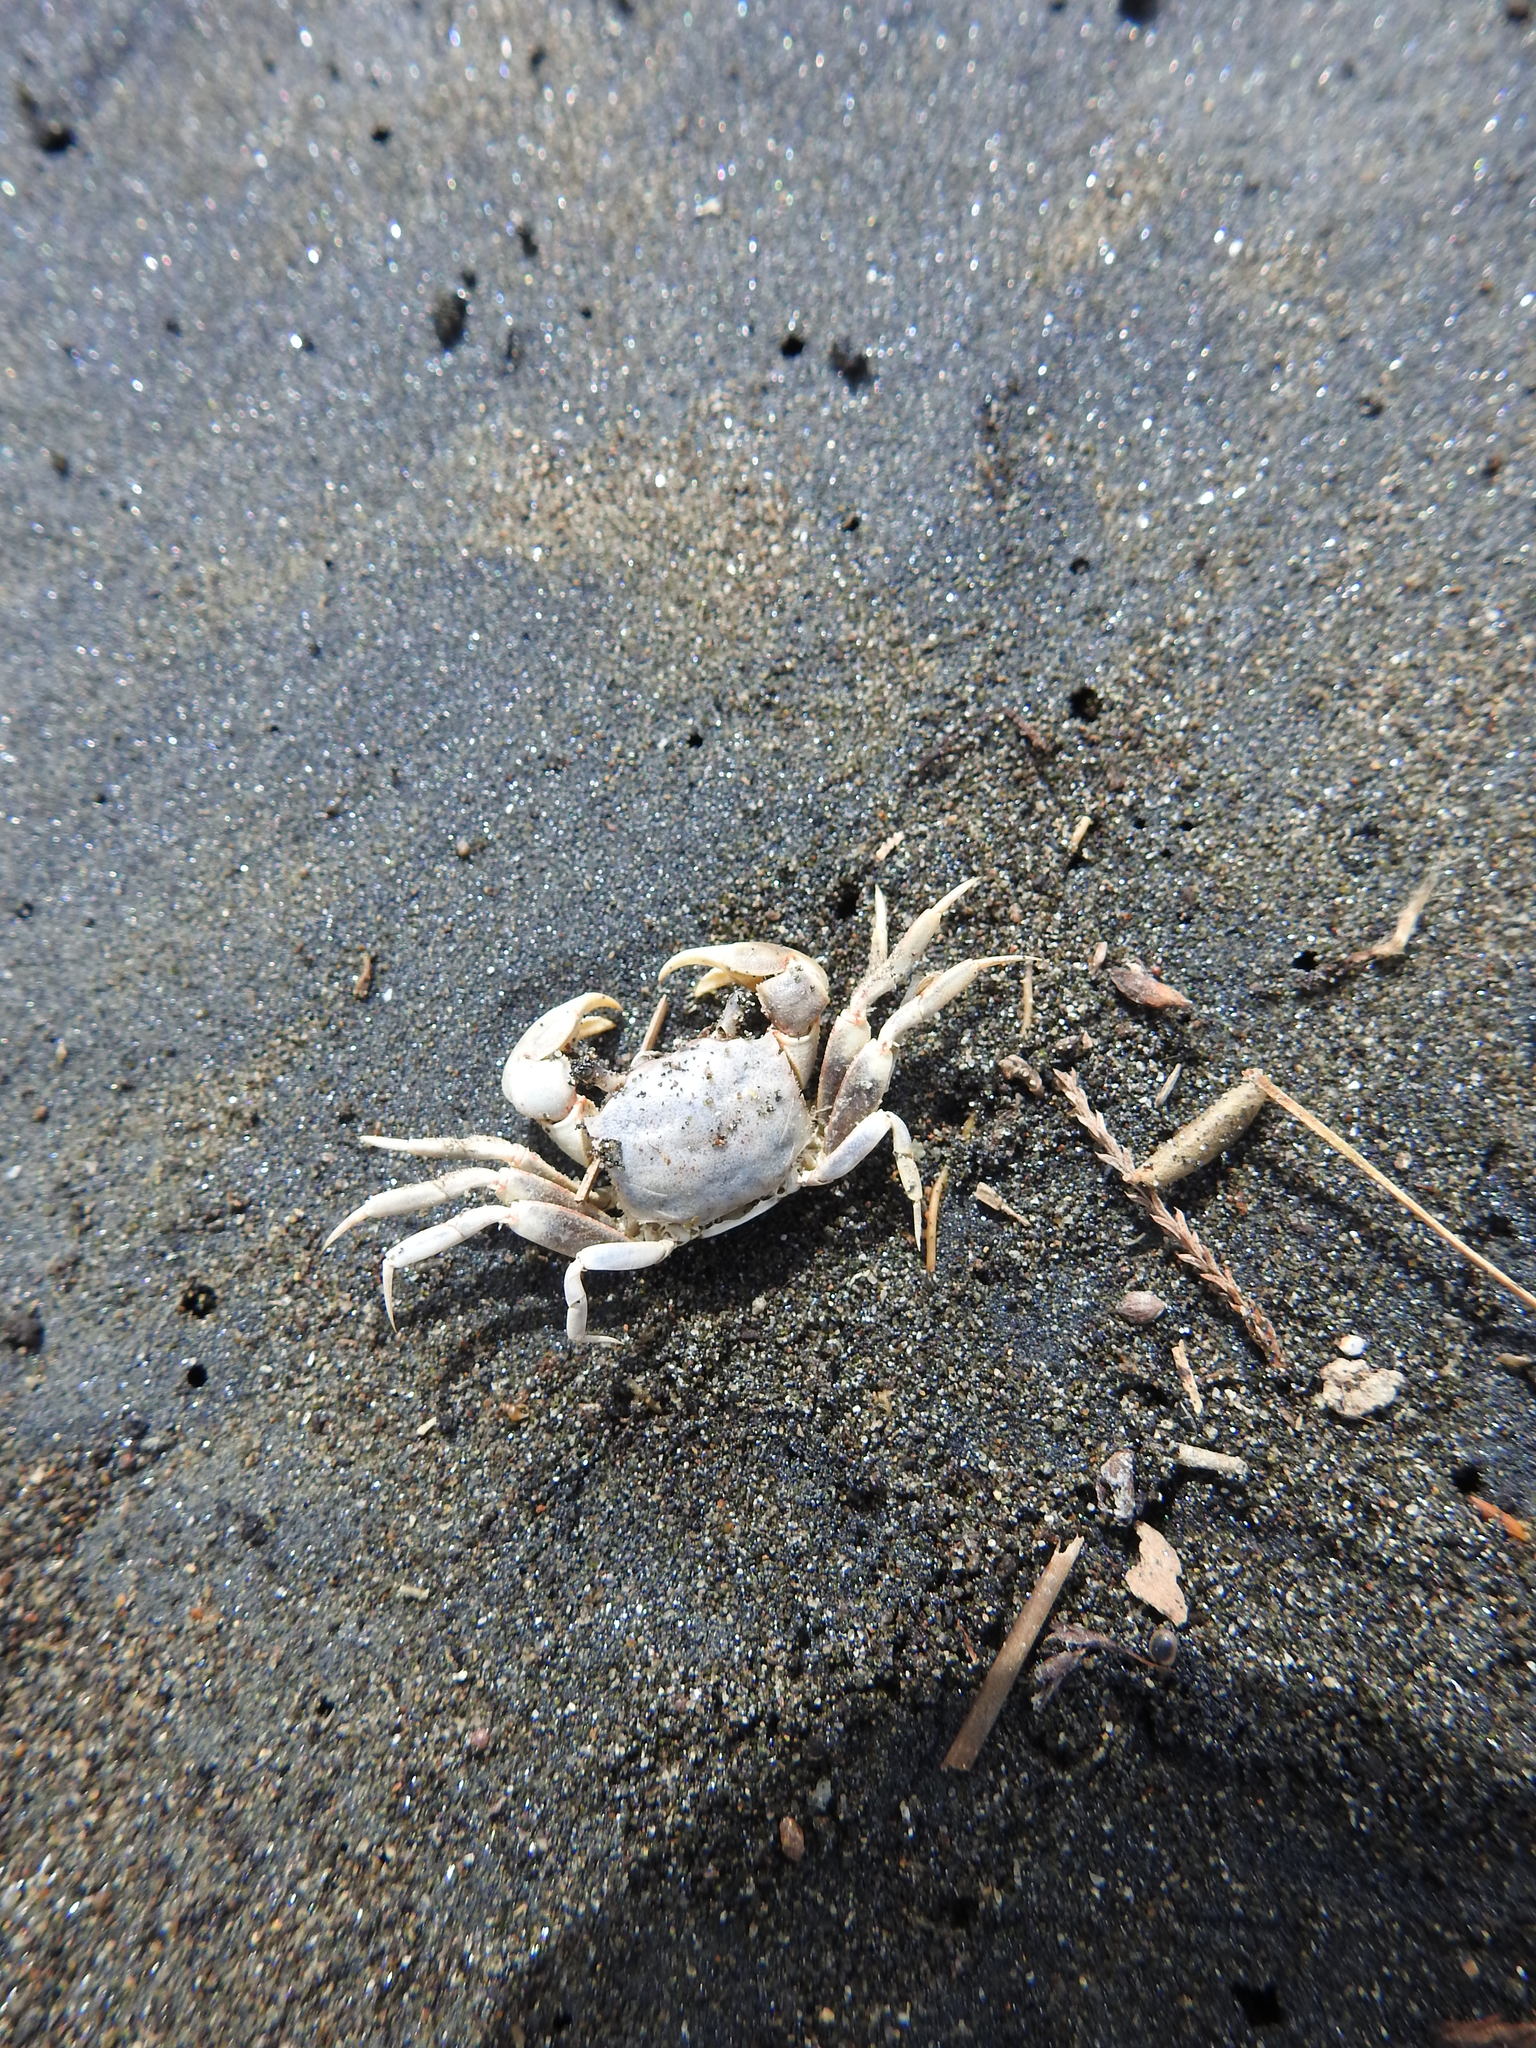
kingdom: Animalia
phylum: Arthropoda
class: Malacostraca
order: Decapoda
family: Varunidae
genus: Austrohelice
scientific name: Austrohelice crassa
